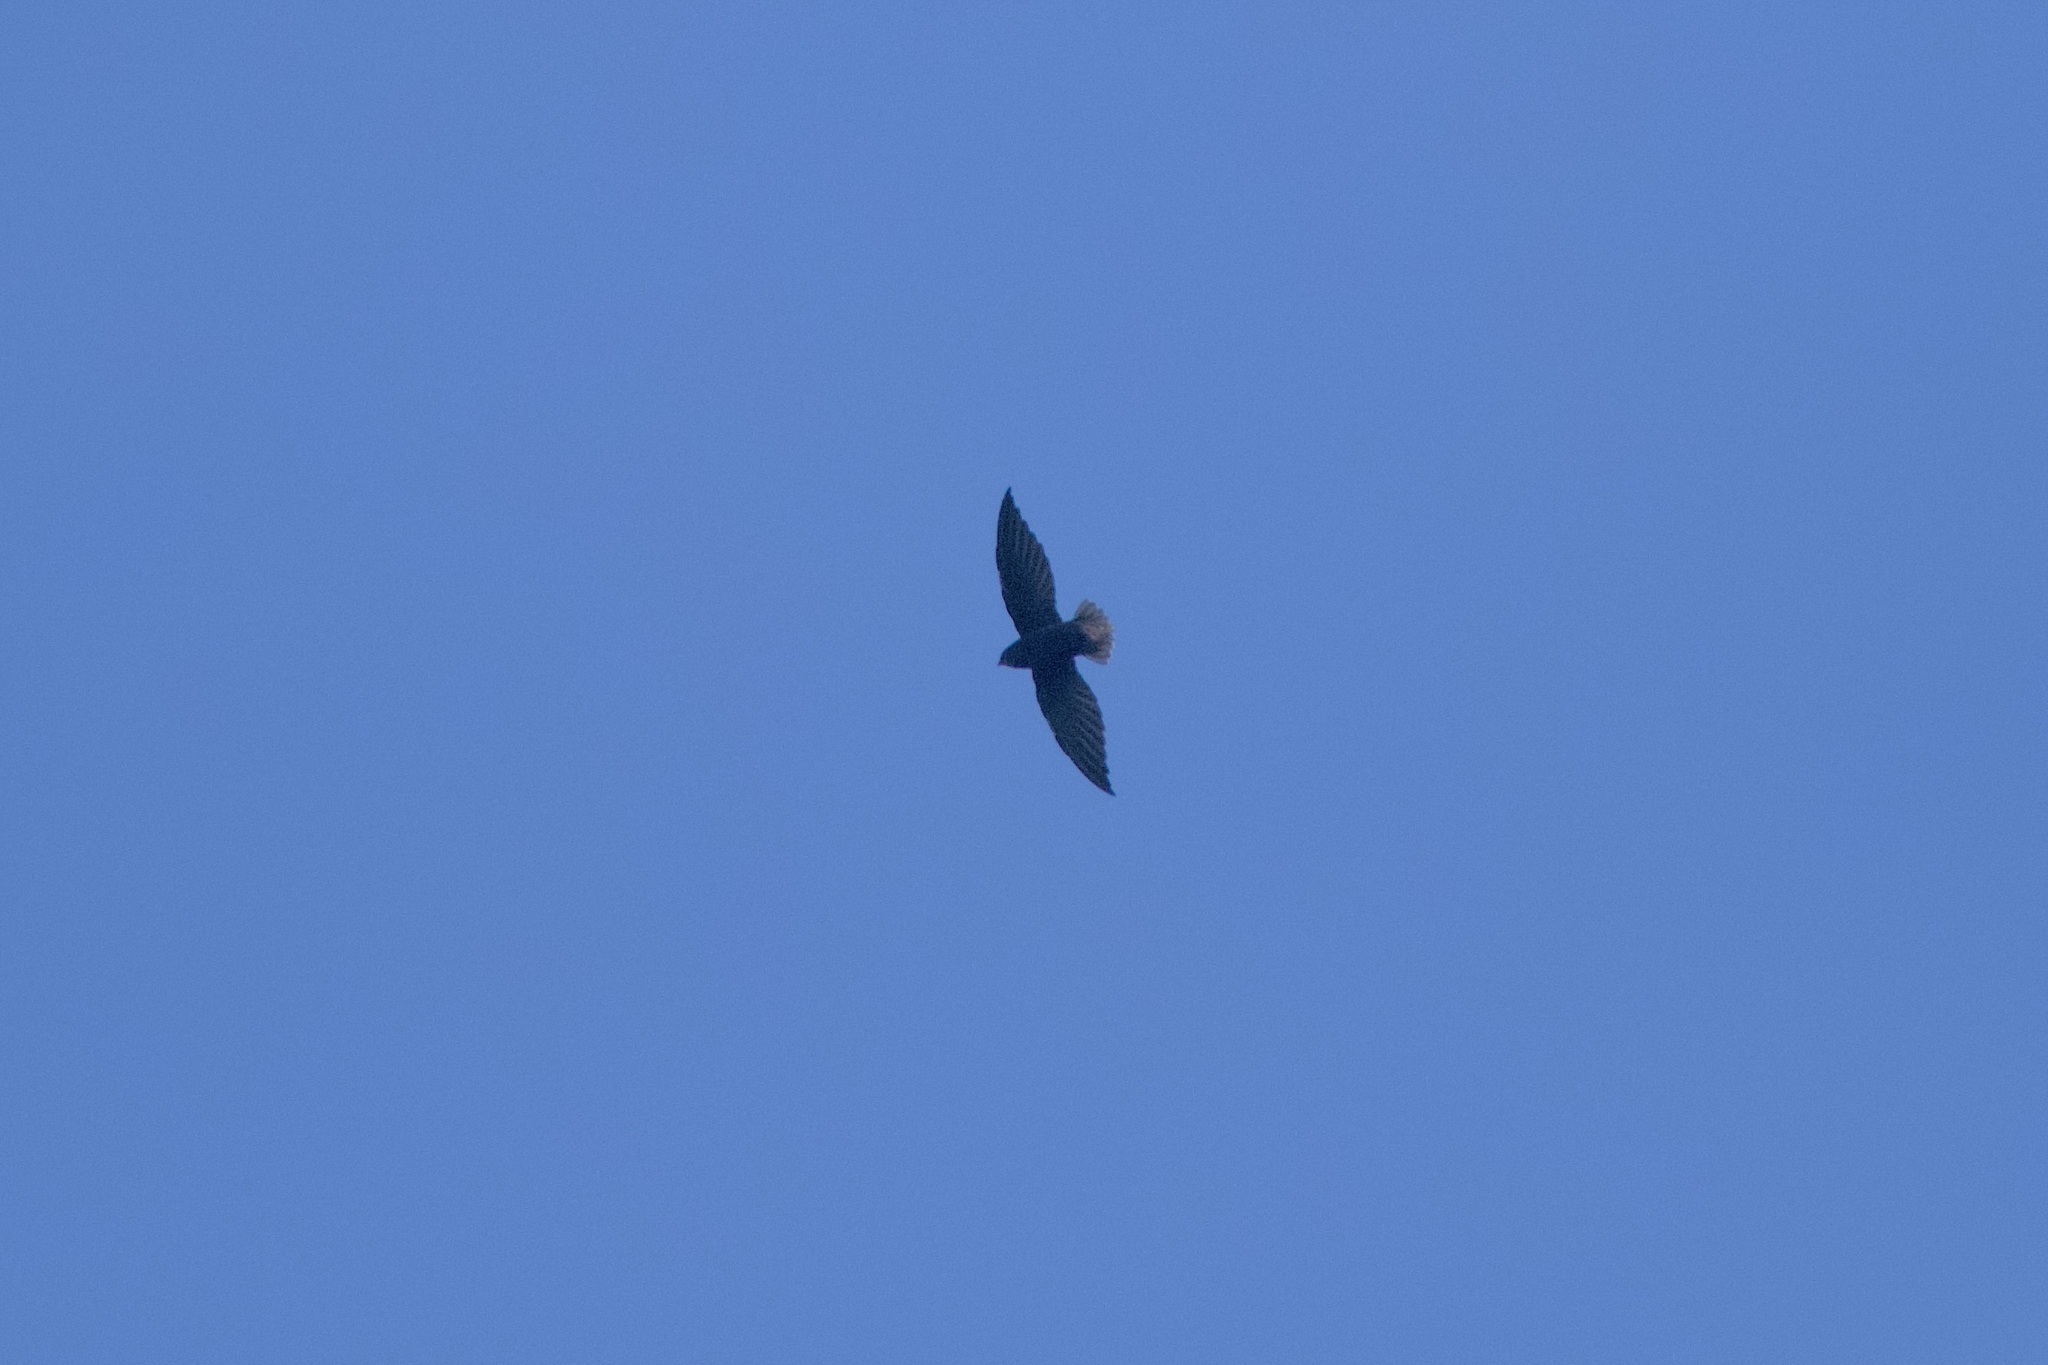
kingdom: Animalia
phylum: Chordata
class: Aves
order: Apodiformes
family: Apodidae
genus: Chaetura
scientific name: Chaetura brachyura
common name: Short-tailed swift
